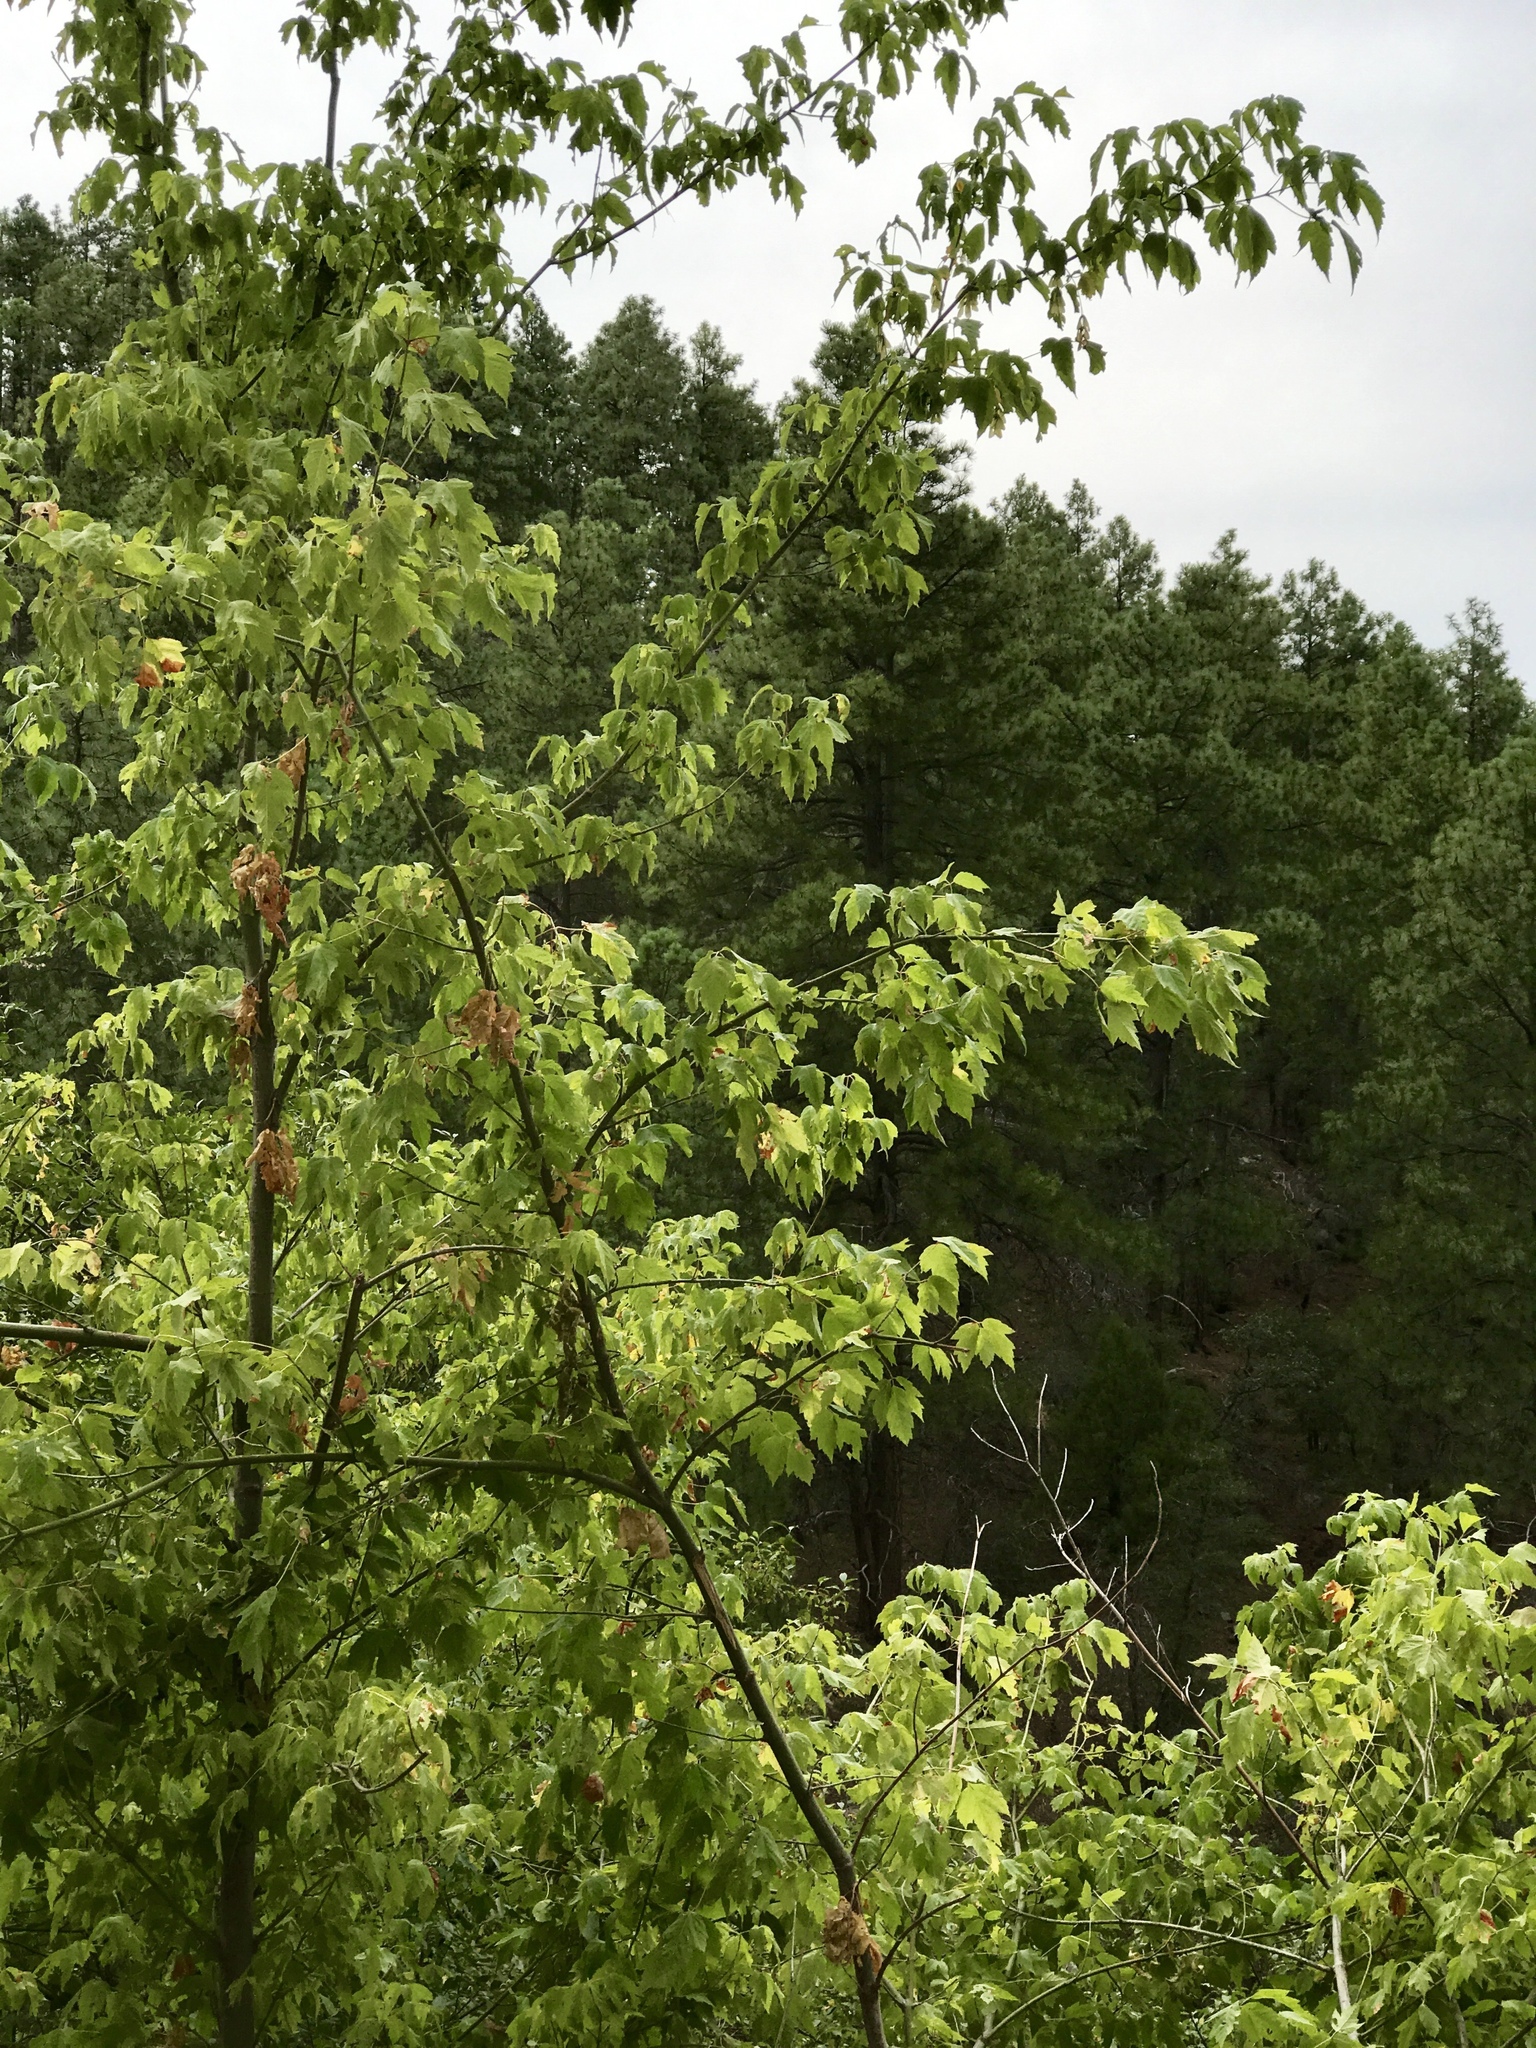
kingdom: Plantae
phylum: Tracheophyta
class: Magnoliopsida
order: Sapindales
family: Sapindaceae
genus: Acer
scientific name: Acer negundo
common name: Ashleaf maple
